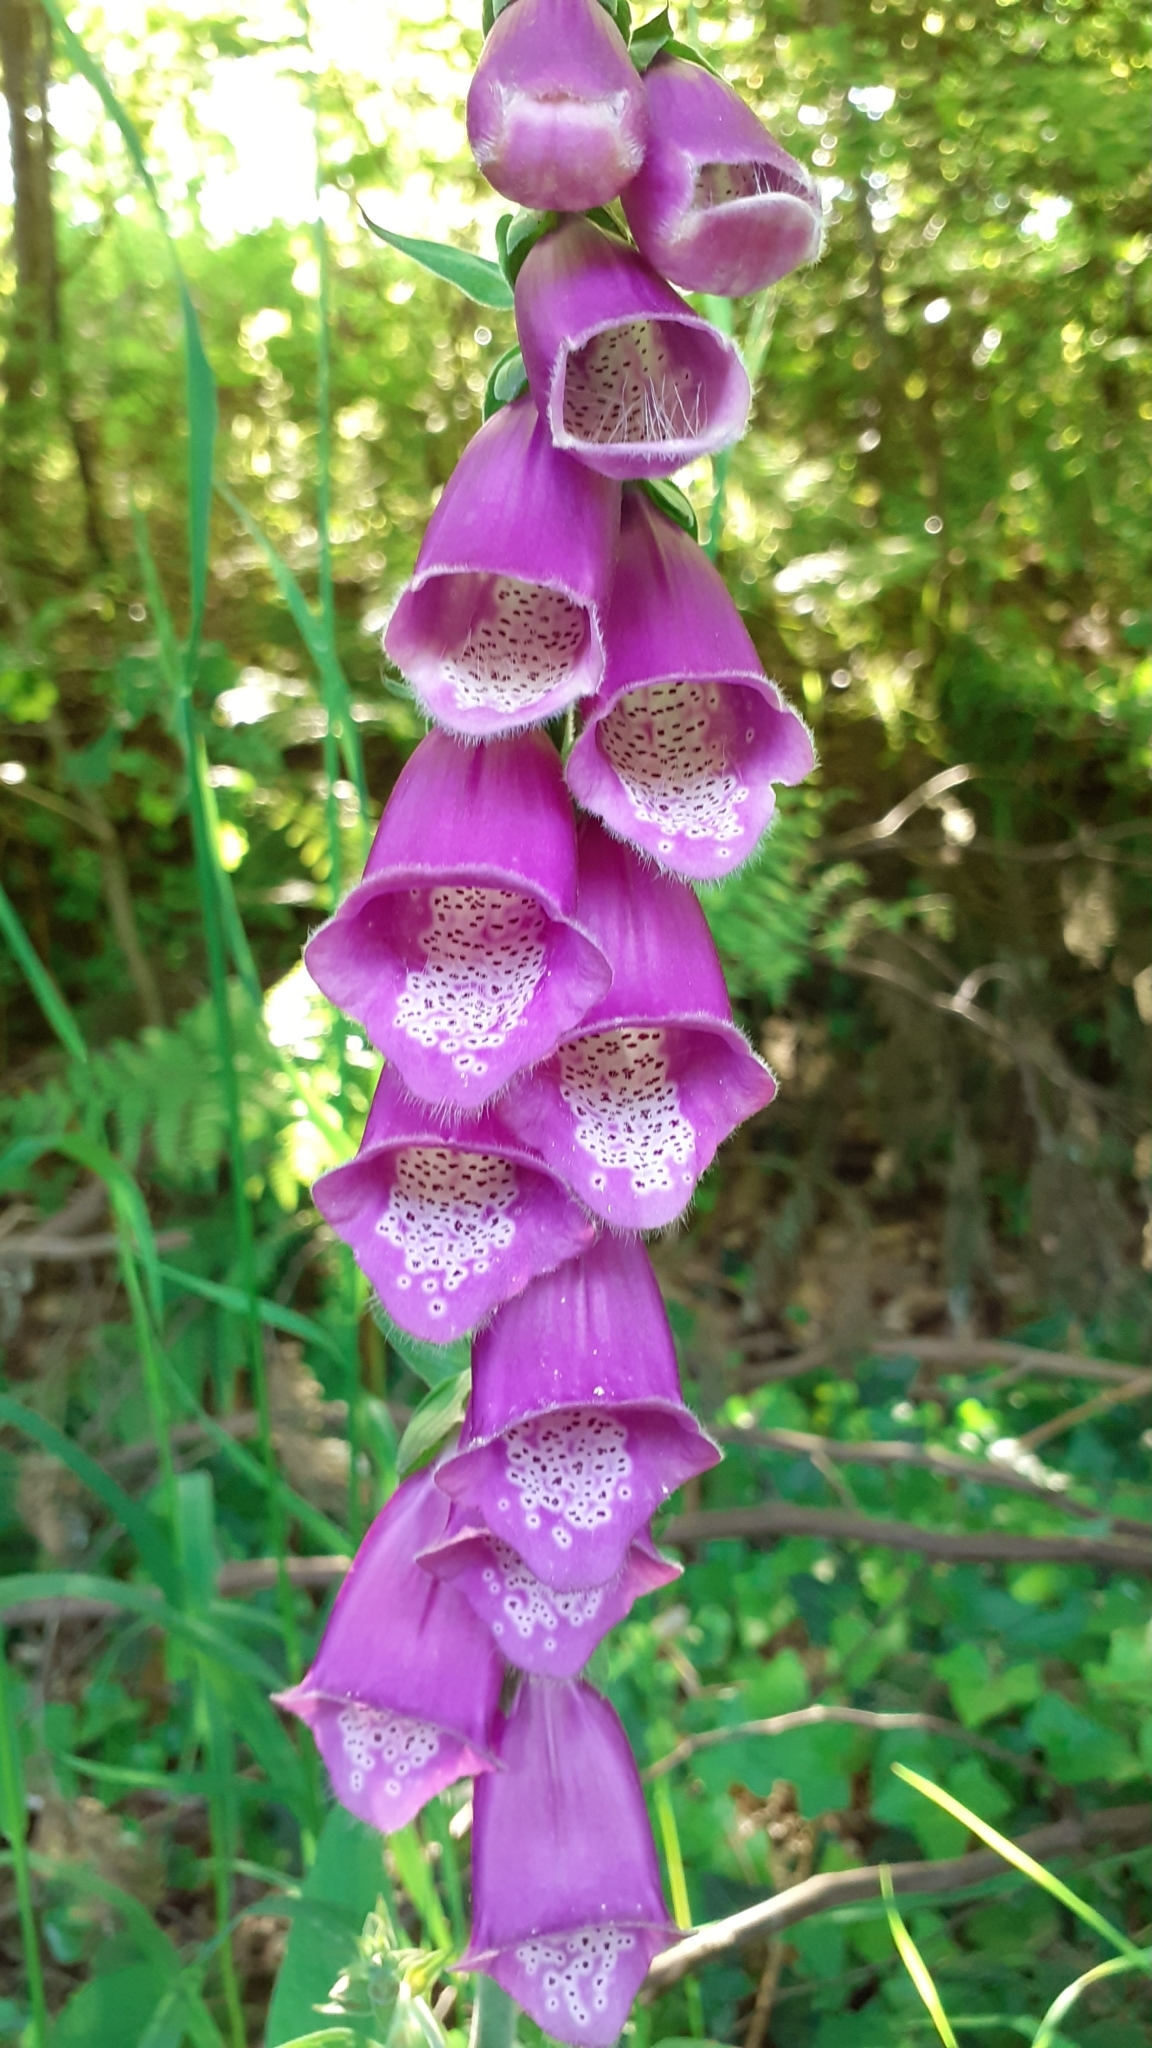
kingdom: Plantae
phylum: Tracheophyta
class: Magnoliopsida
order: Lamiales
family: Plantaginaceae
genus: Digitalis
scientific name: Digitalis purpurea
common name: Foxglove
